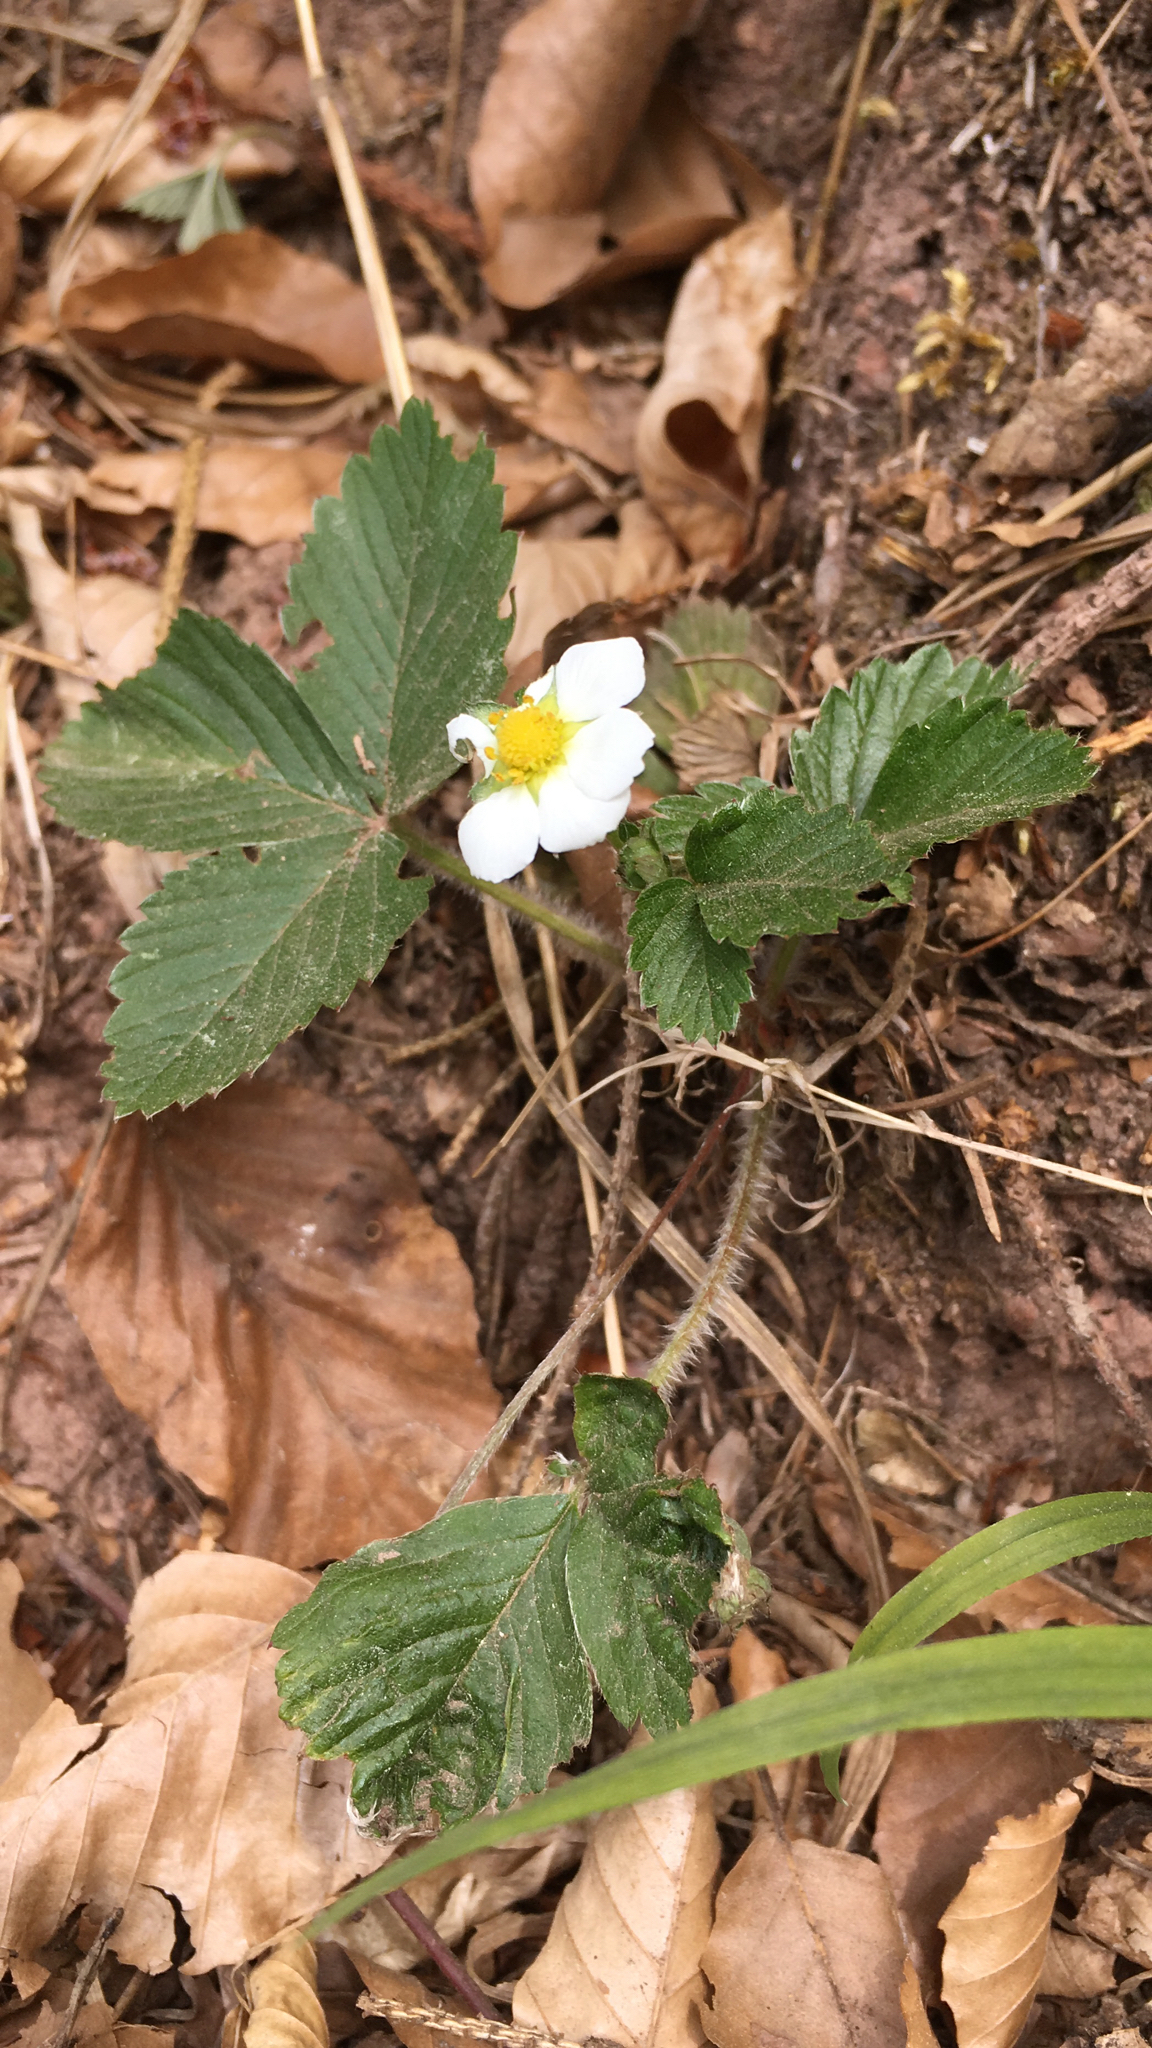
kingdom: Plantae
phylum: Tracheophyta
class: Magnoliopsida
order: Rosales
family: Rosaceae
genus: Fragaria
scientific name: Fragaria vesca
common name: Wild strawberry
